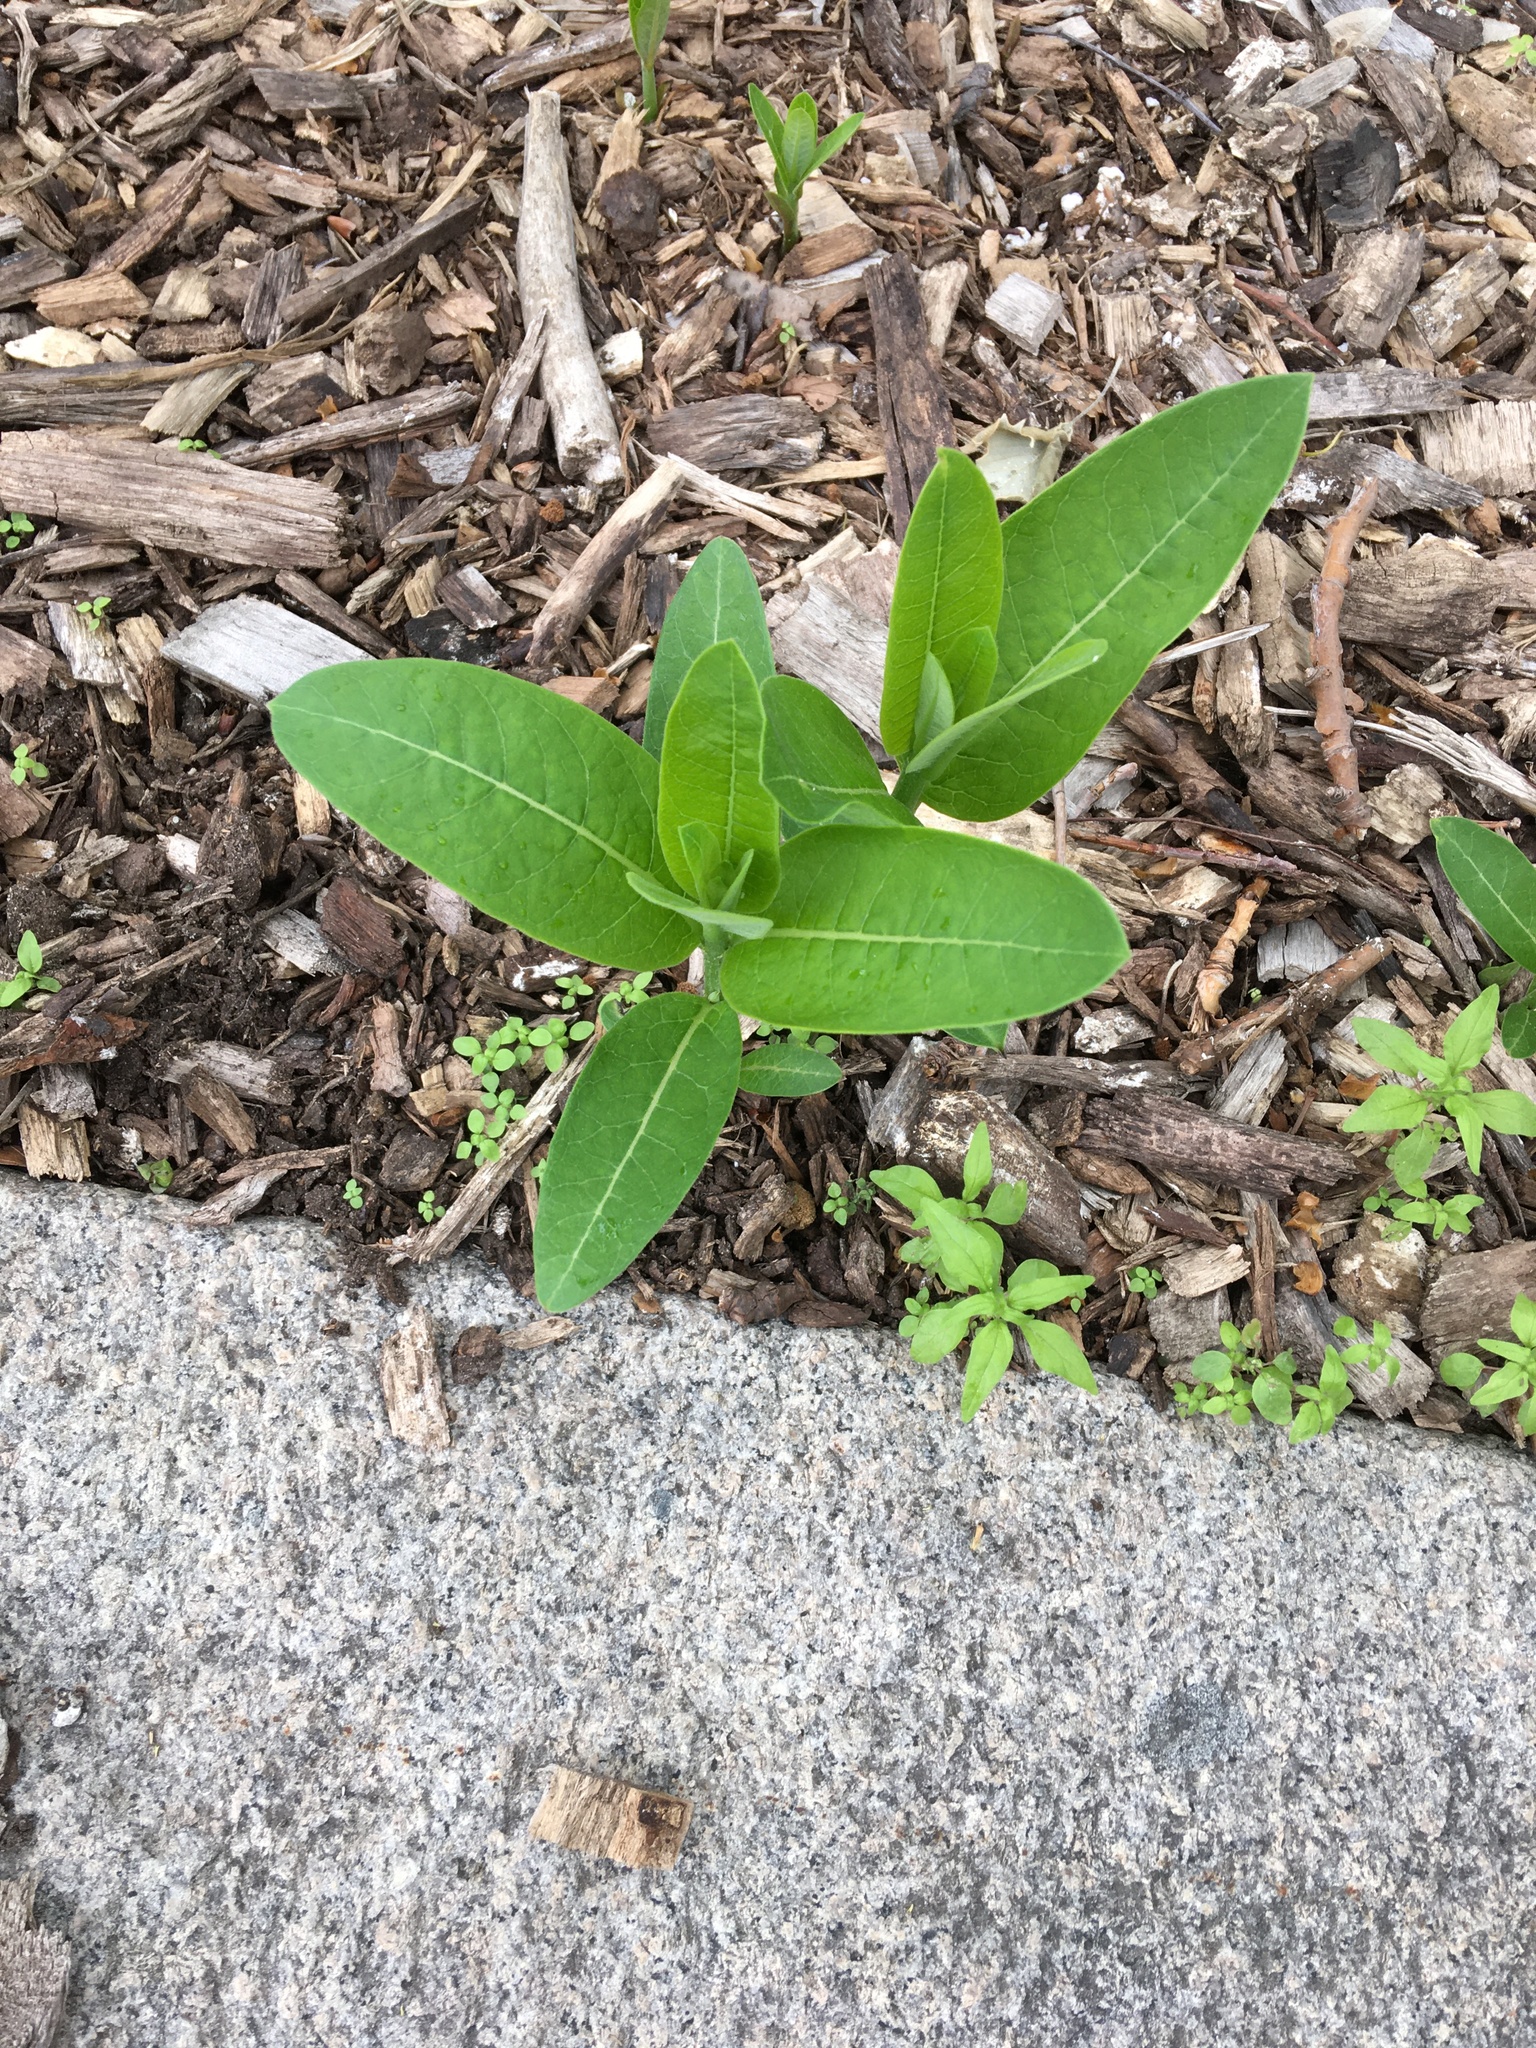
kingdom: Plantae
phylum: Tracheophyta
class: Magnoliopsida
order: Gentianales
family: Apocynaceae
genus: Asclepias
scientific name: Asclepias syriaca
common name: Common milkweed
